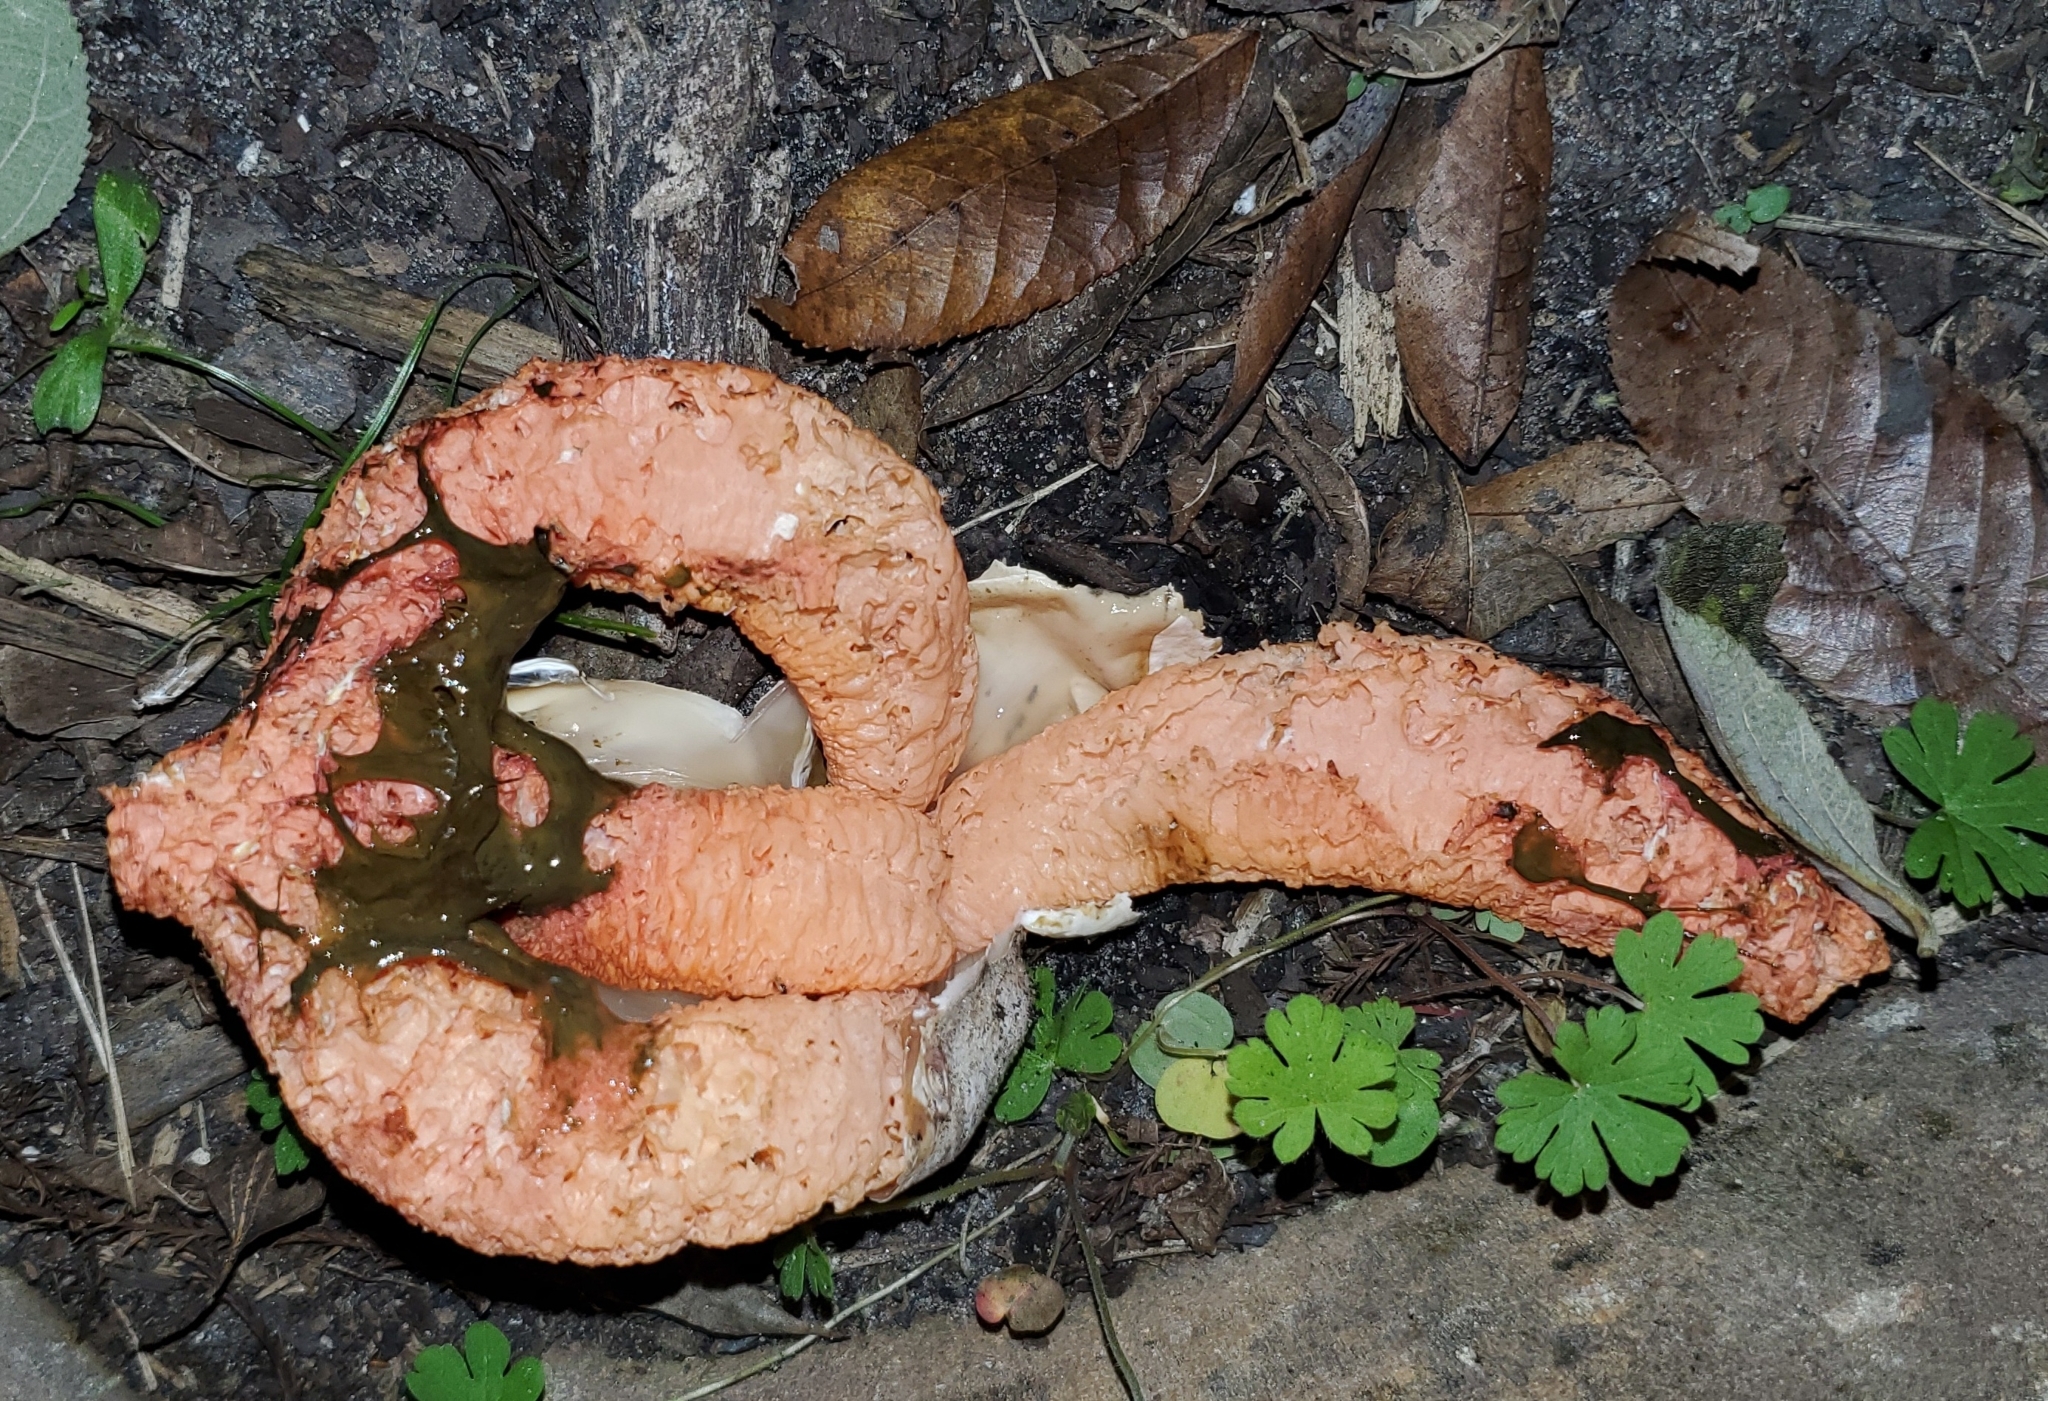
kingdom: Fungi
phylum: Basidiomycota
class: Agaricomycetes
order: Phallales
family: Phallaceae
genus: Clathrus
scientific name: Clathrus columnatus
